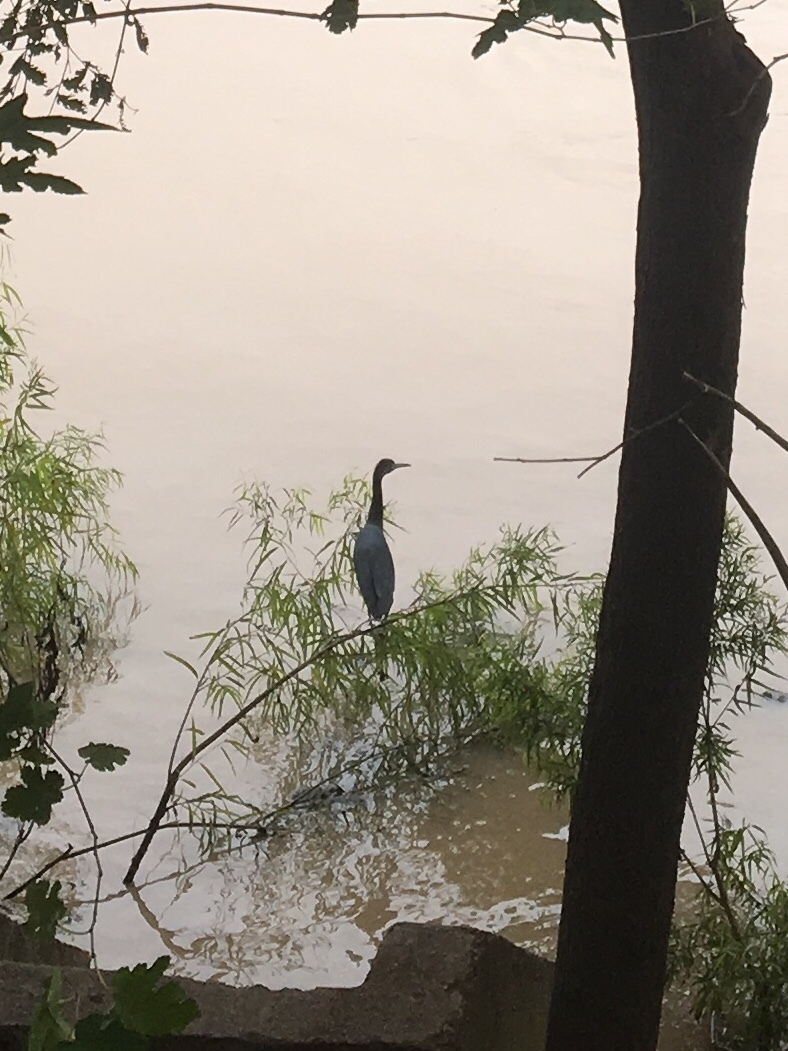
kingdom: Animalia
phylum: Chordata
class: Aves
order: Pelecaniformes
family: Ardeidae
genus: Egretta
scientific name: Egretta caerulea
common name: Little blue heron
